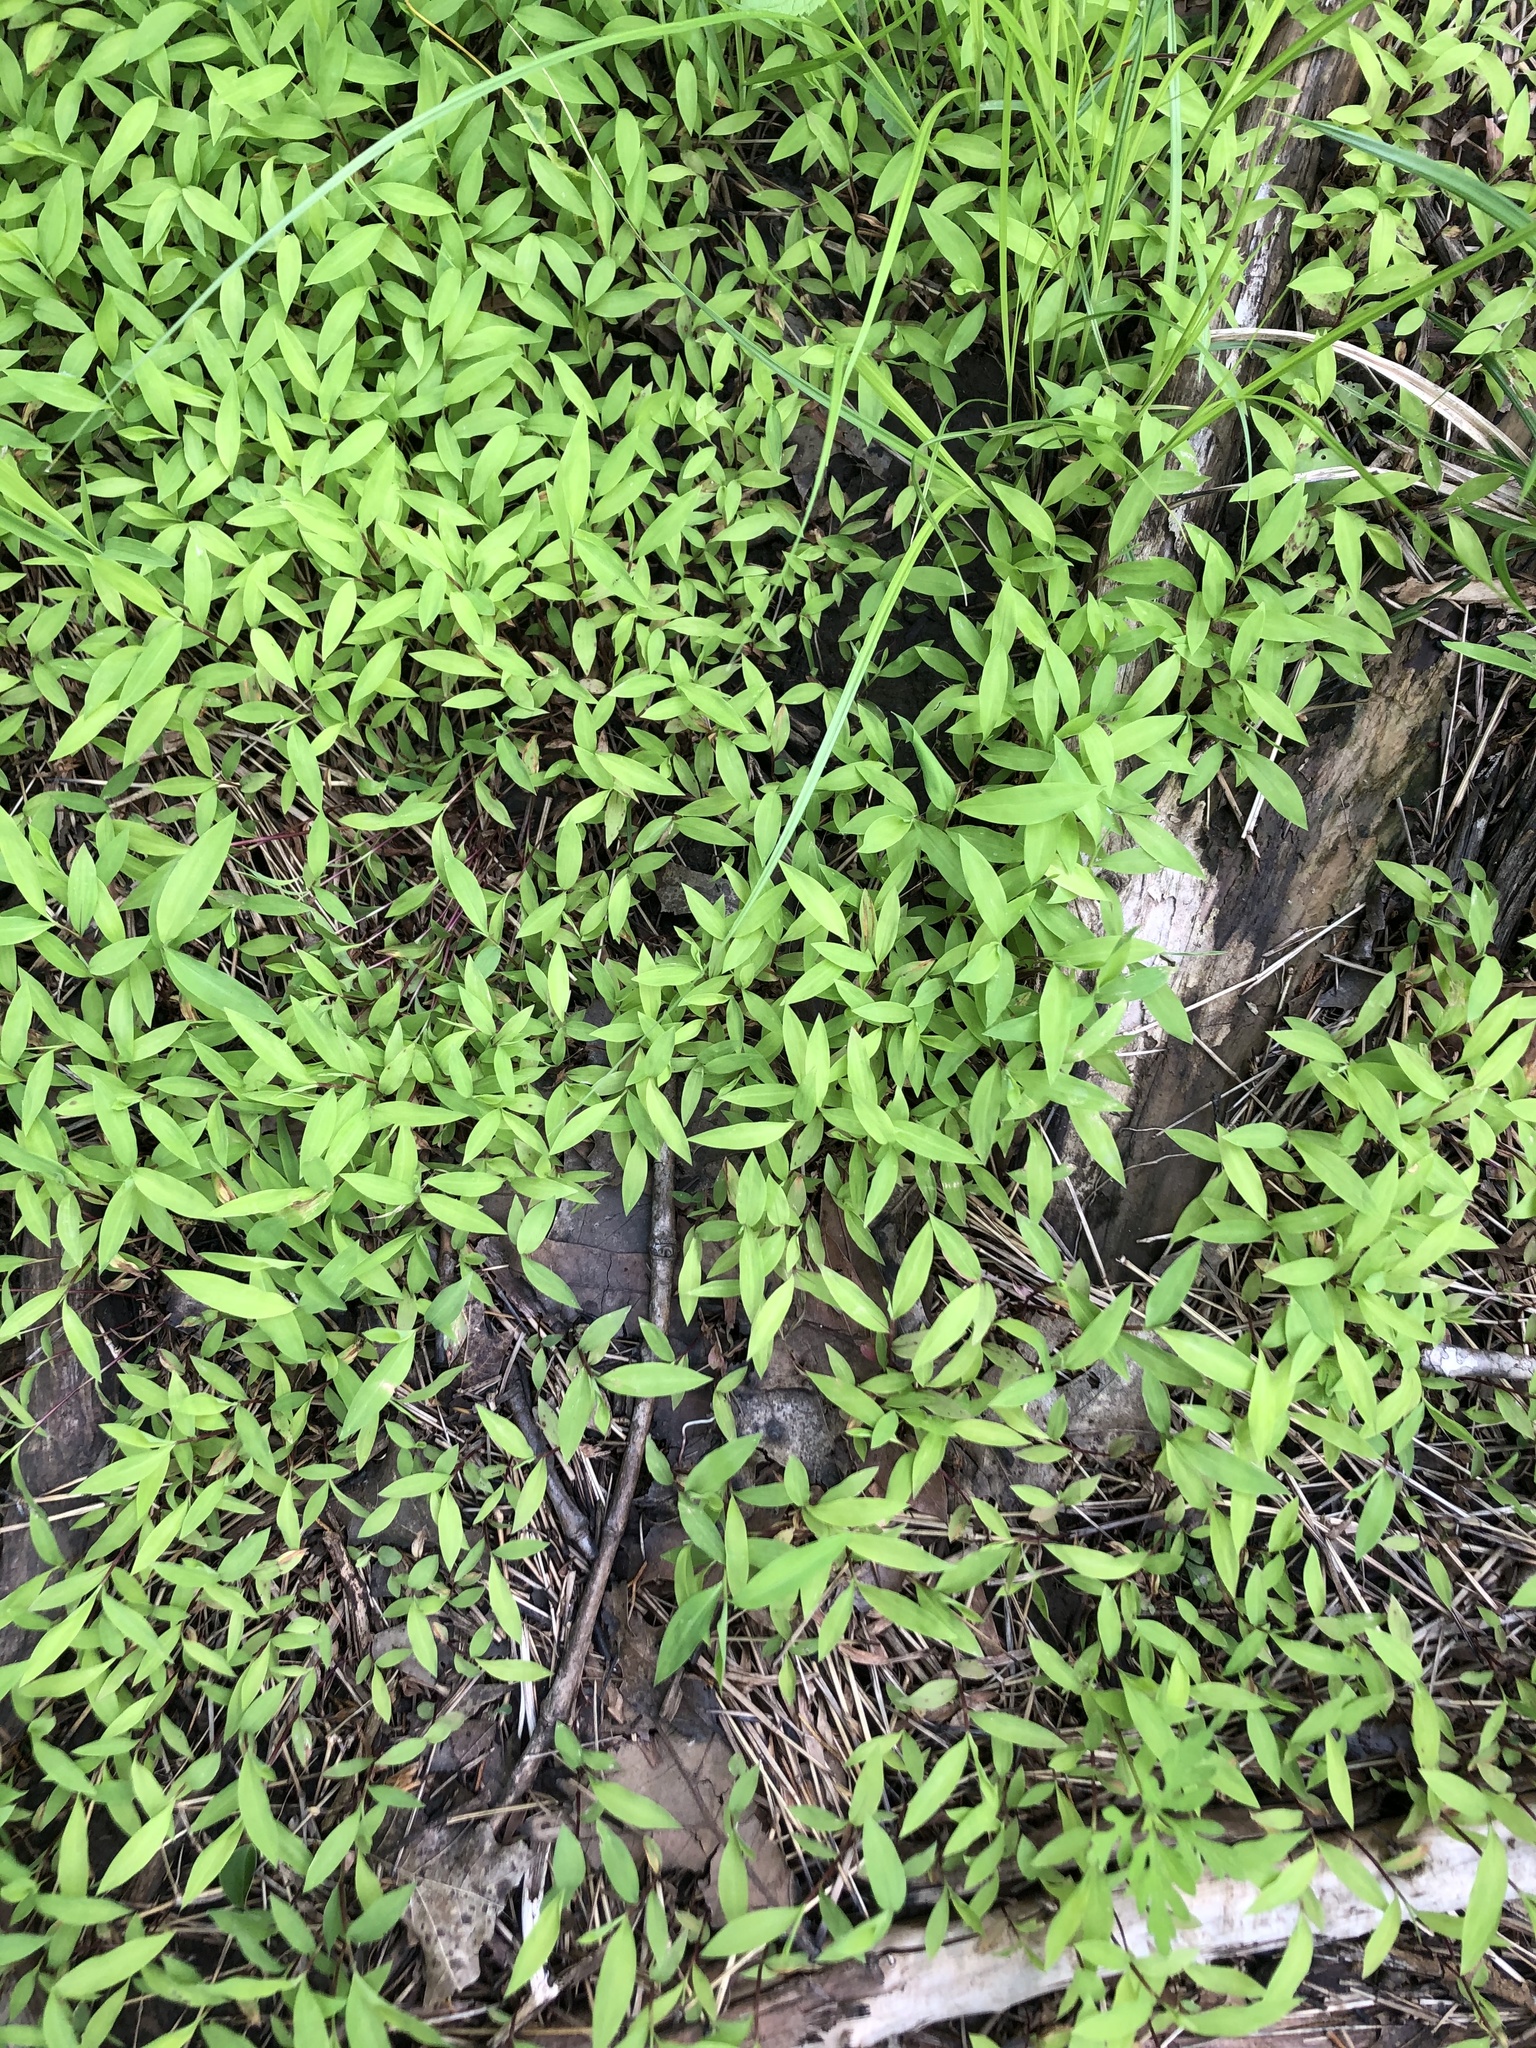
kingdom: Plantae
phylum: Tracheophyta
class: Liliopsida
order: Poales
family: Poaceae
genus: Microstegium
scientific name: Microstegium vimineum
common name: Japanese stiltgrass
